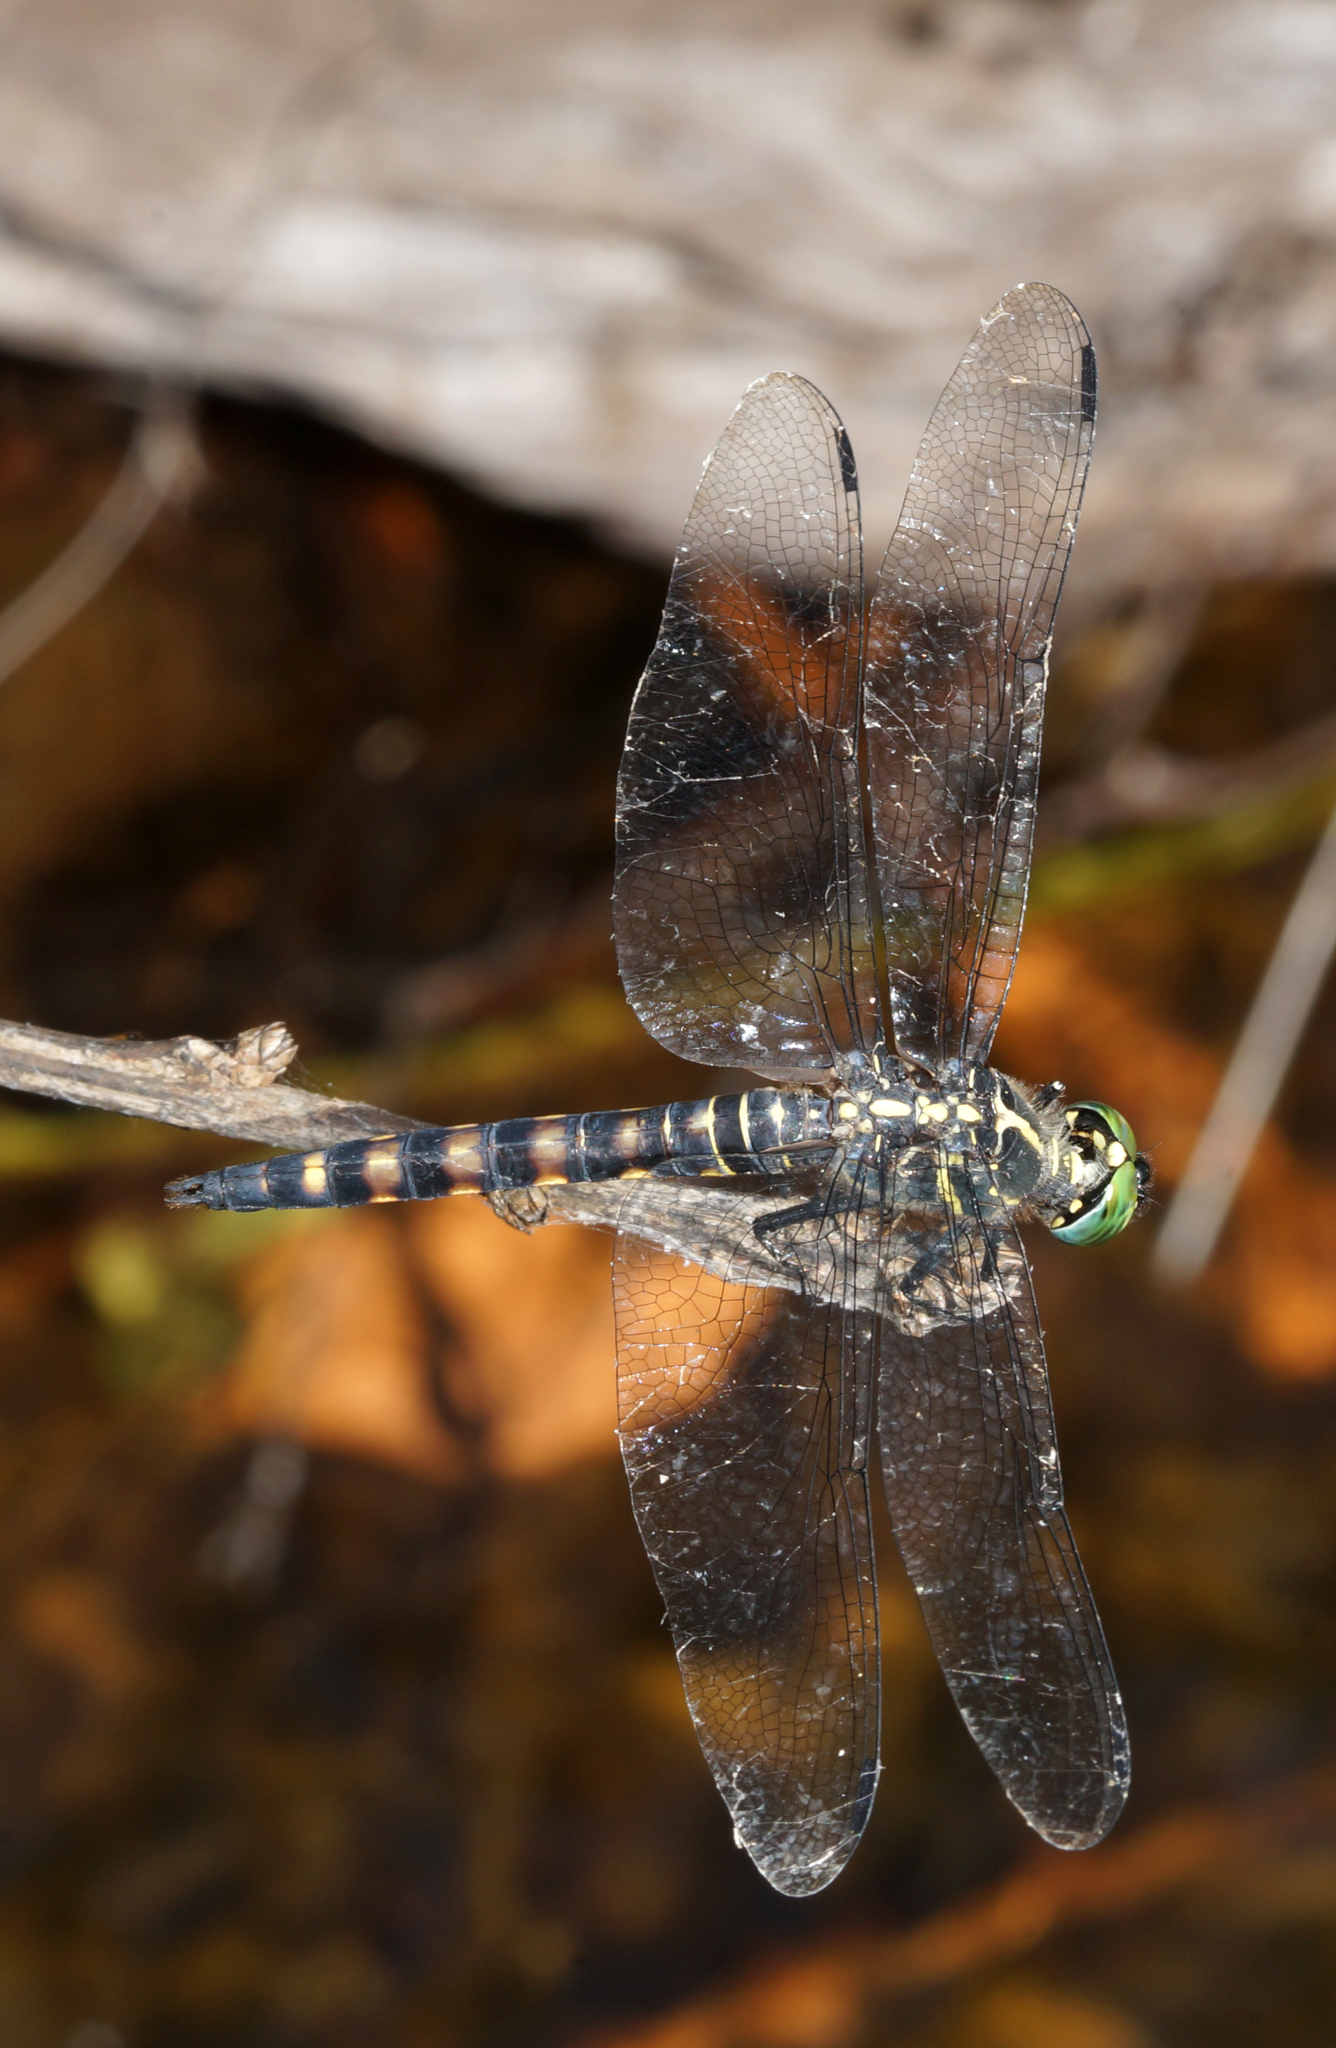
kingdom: Animalia
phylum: Arthropoda
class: Insecta
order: Odonata
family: Libellulidae
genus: Onychothemis
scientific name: Onychothemis testacea
